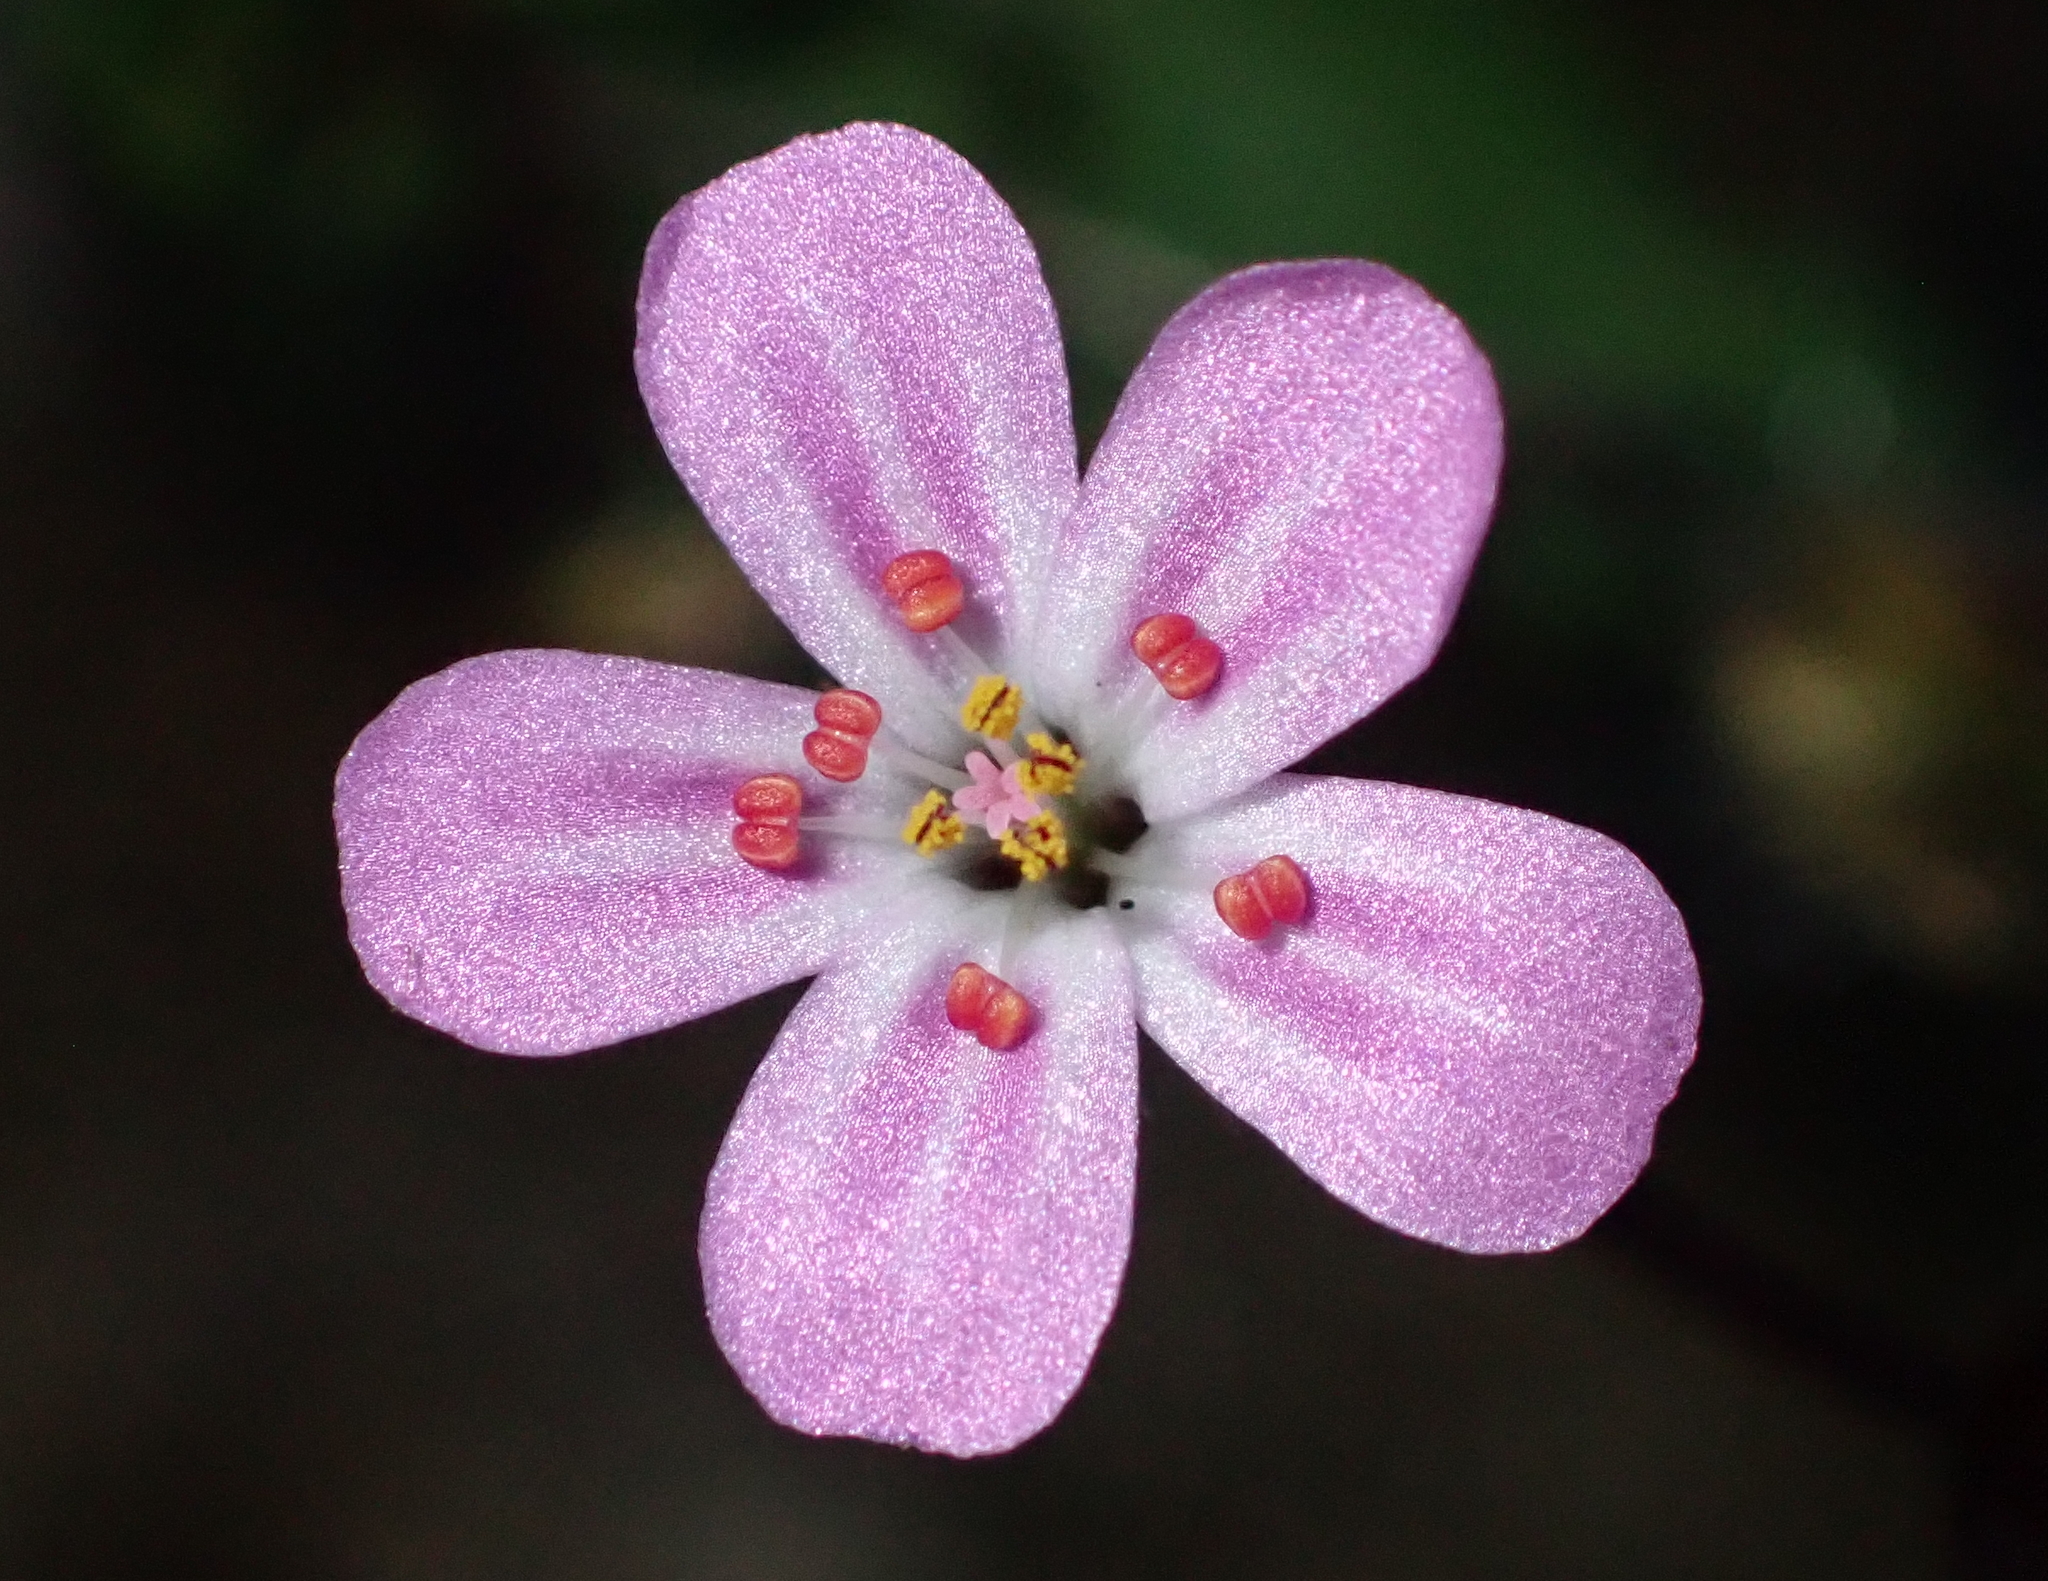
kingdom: Plantae
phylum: Tracheophyta
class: Magnoliopsida
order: Geraniales
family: Geraniaceae
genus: Geranium
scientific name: Geranium robertianum
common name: Herb-robert
